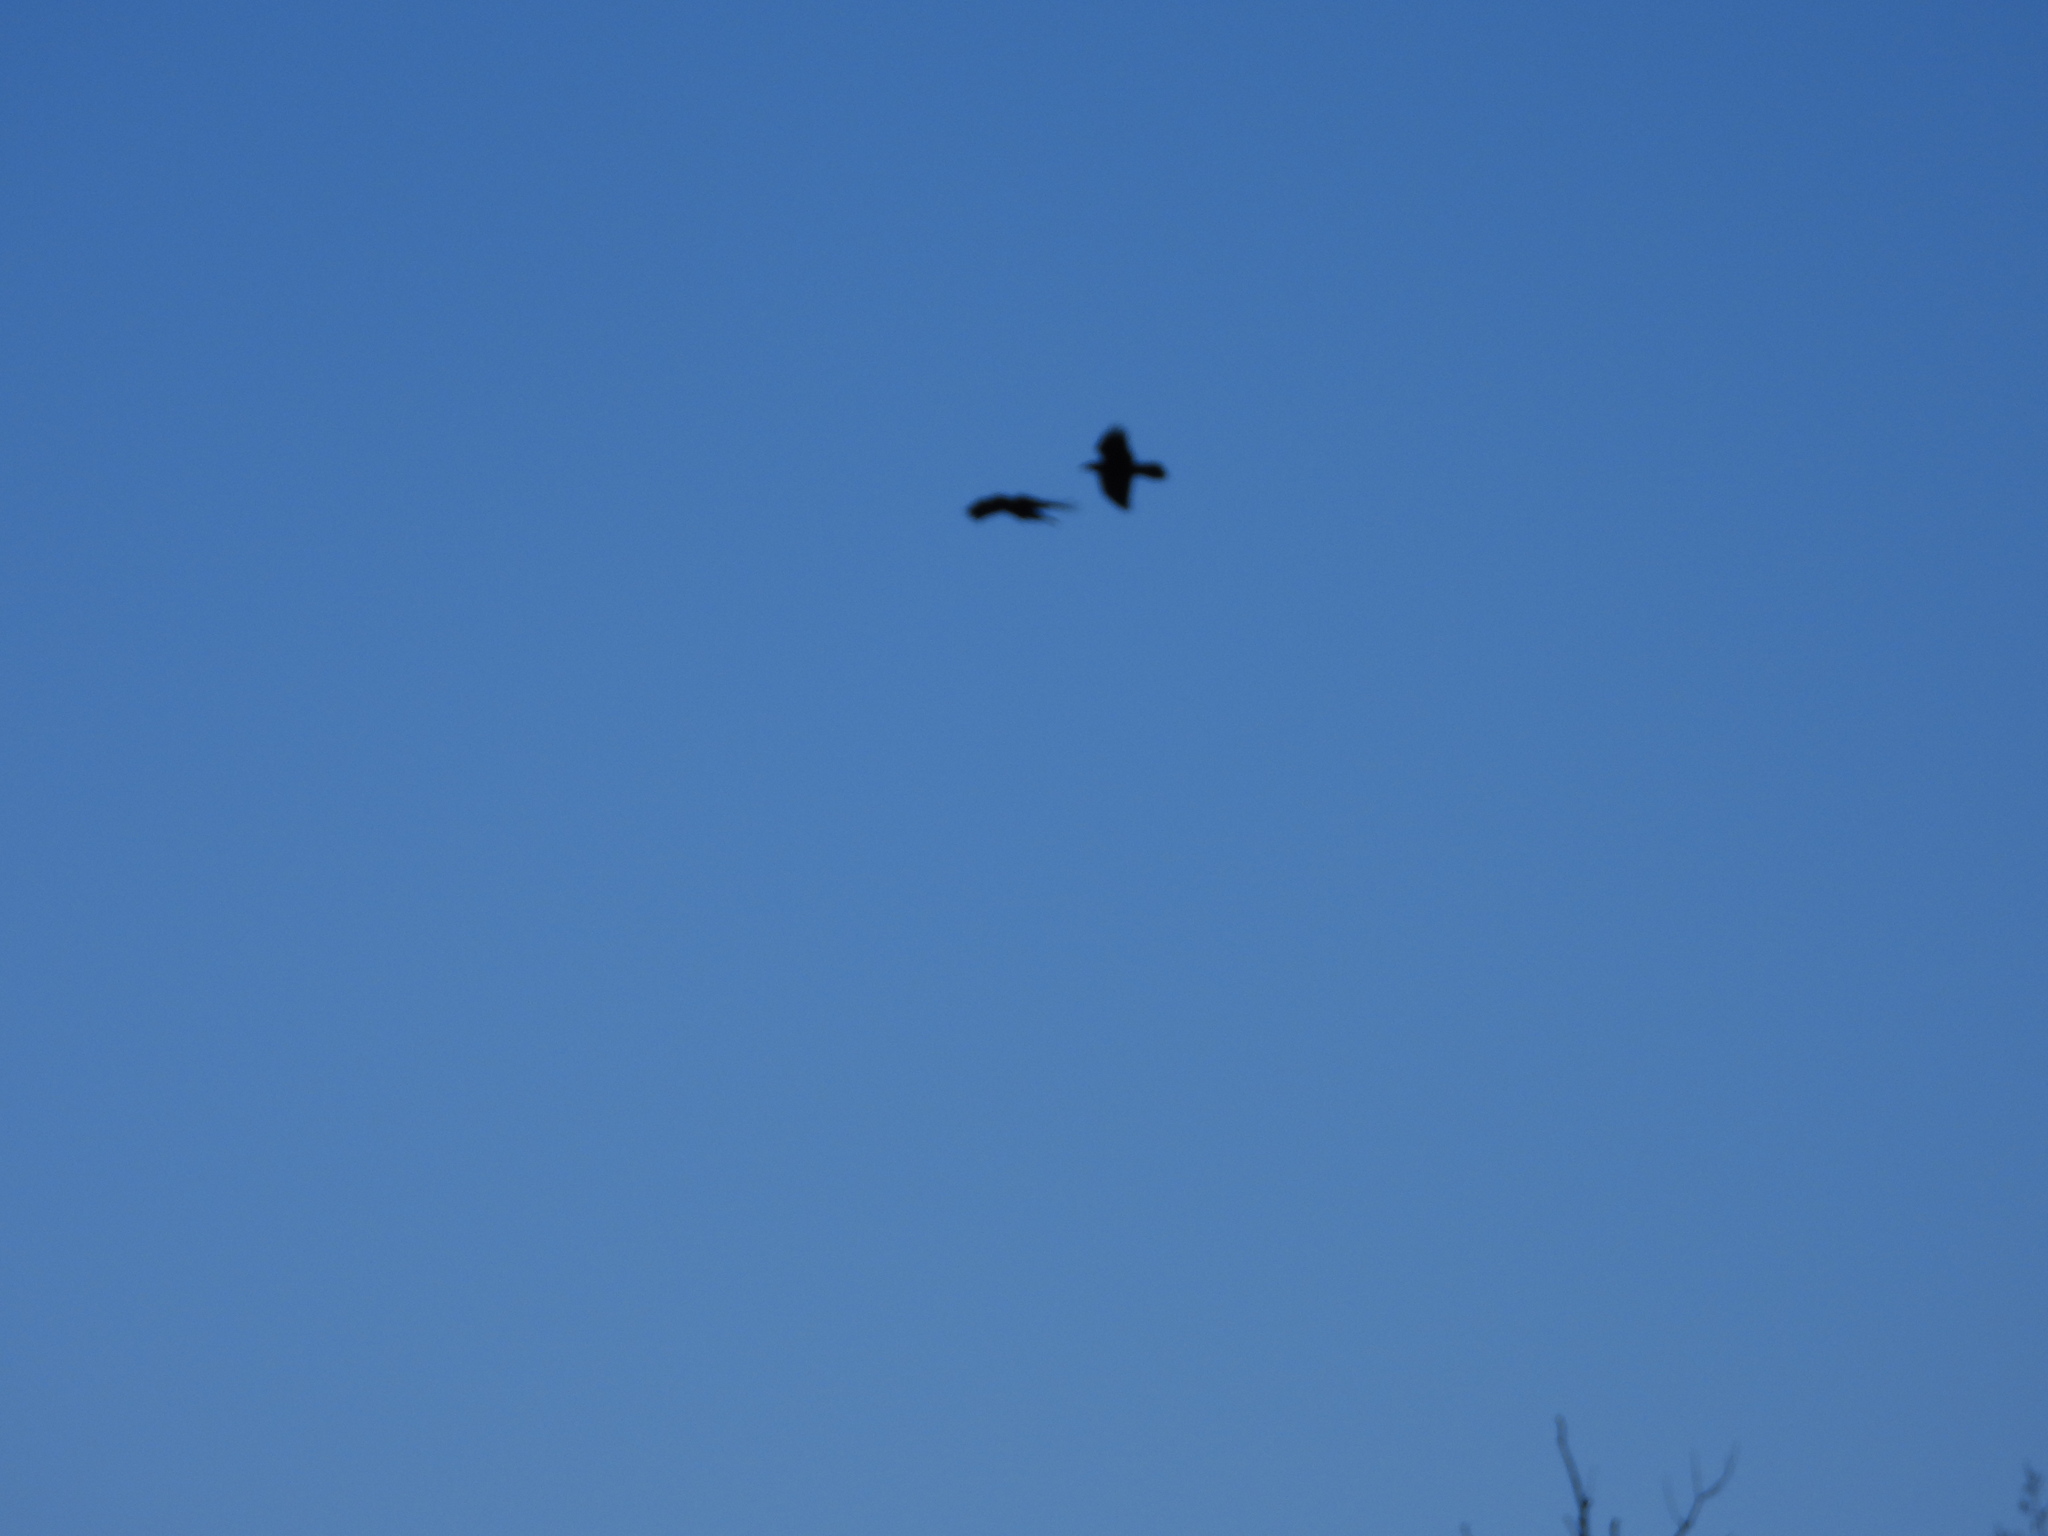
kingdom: Animalia
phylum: Chordata
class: Aves
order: Passeriformes
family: Corvidae
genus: Corvus
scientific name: Corvus brachyrhynchos
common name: American crow
